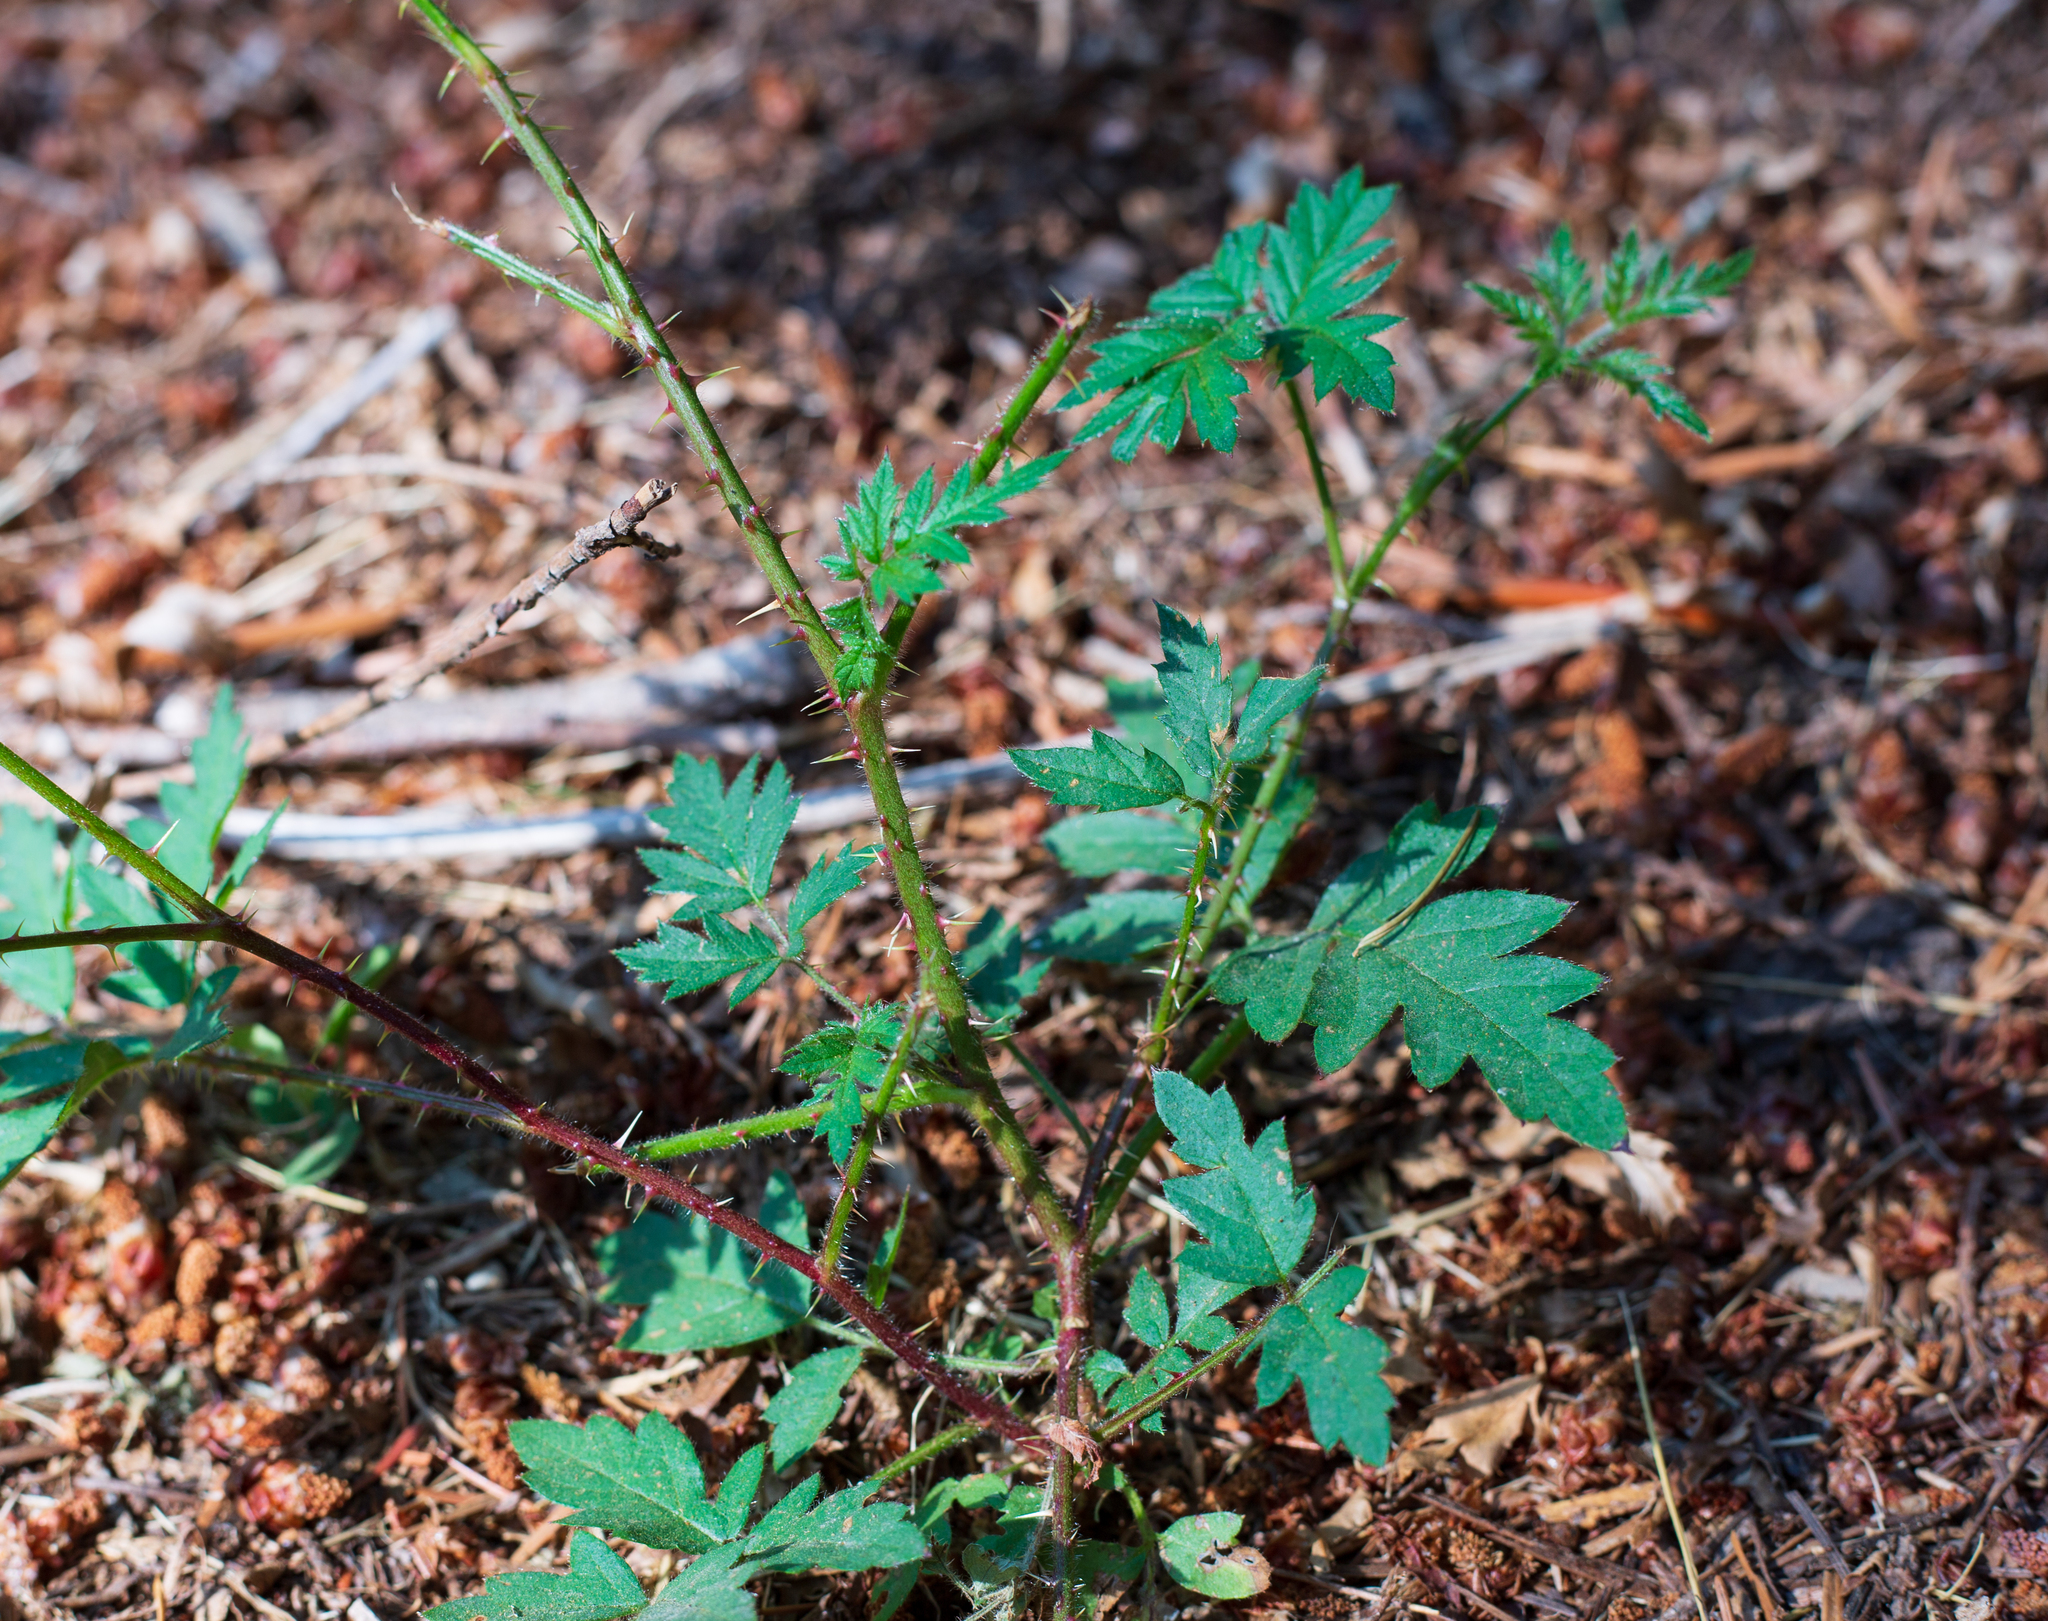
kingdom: Plantae
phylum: Tracheophyta
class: Magnoliopsida
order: Rosales
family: Rosaceae
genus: Rubus
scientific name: Rubus laciniatus
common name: Evergreen blackberry
